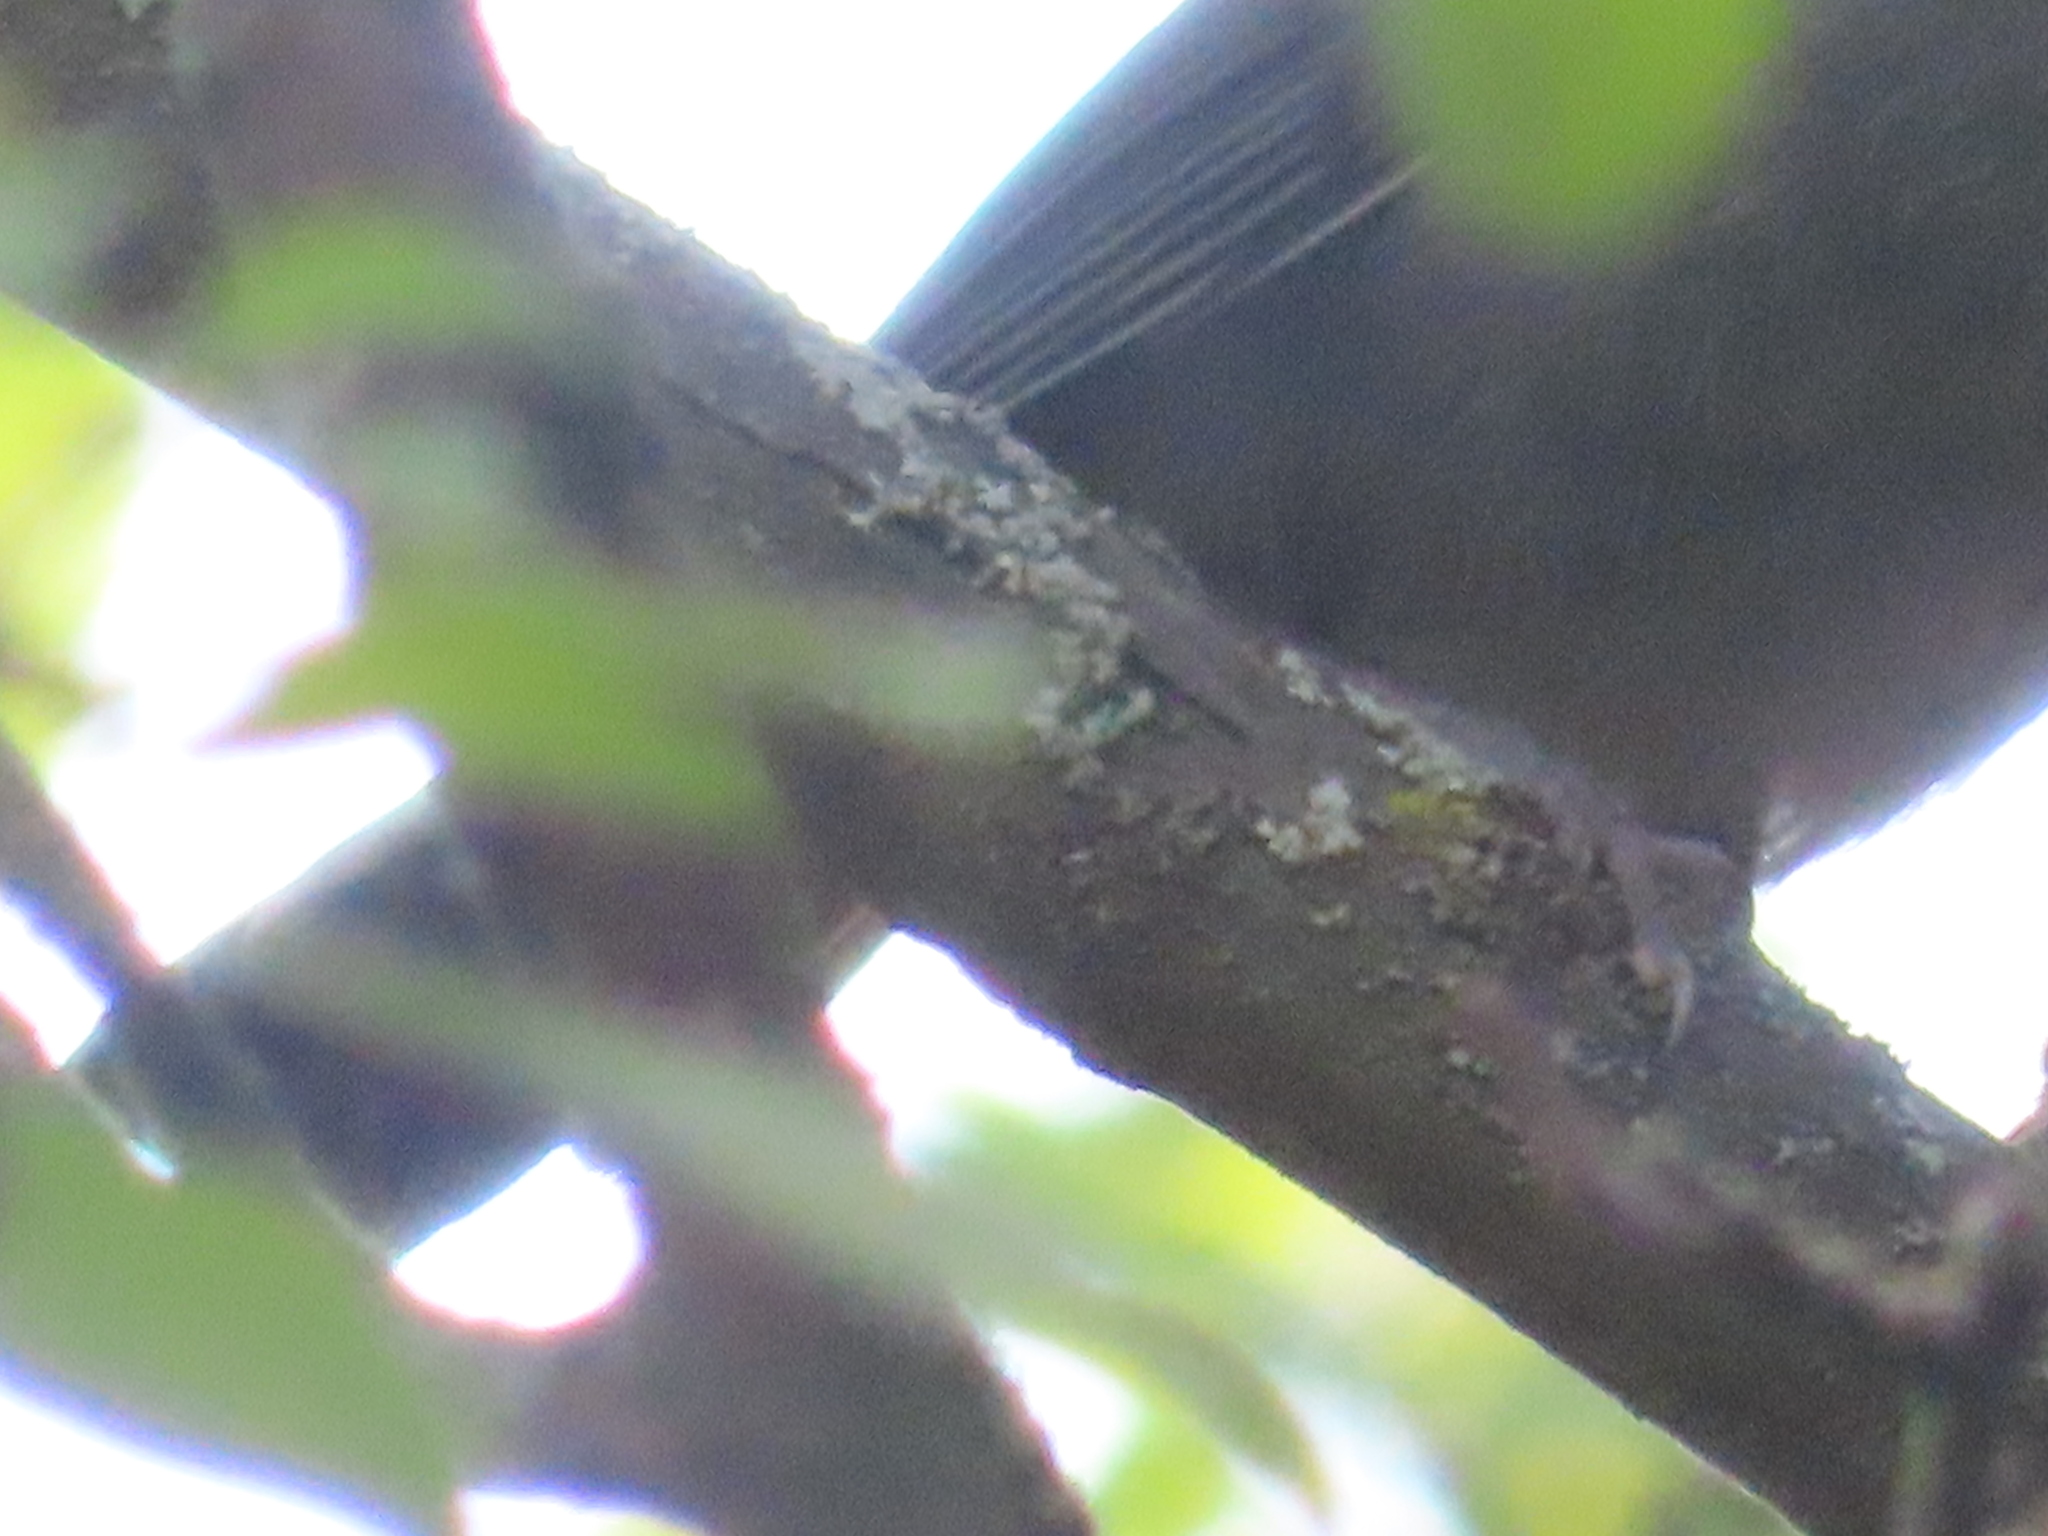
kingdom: Animalia
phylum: Chordata
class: Aves
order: Passeriformes
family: Mimidae
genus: Dumetella
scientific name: Dumetella carolinensis
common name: Gray catbird
